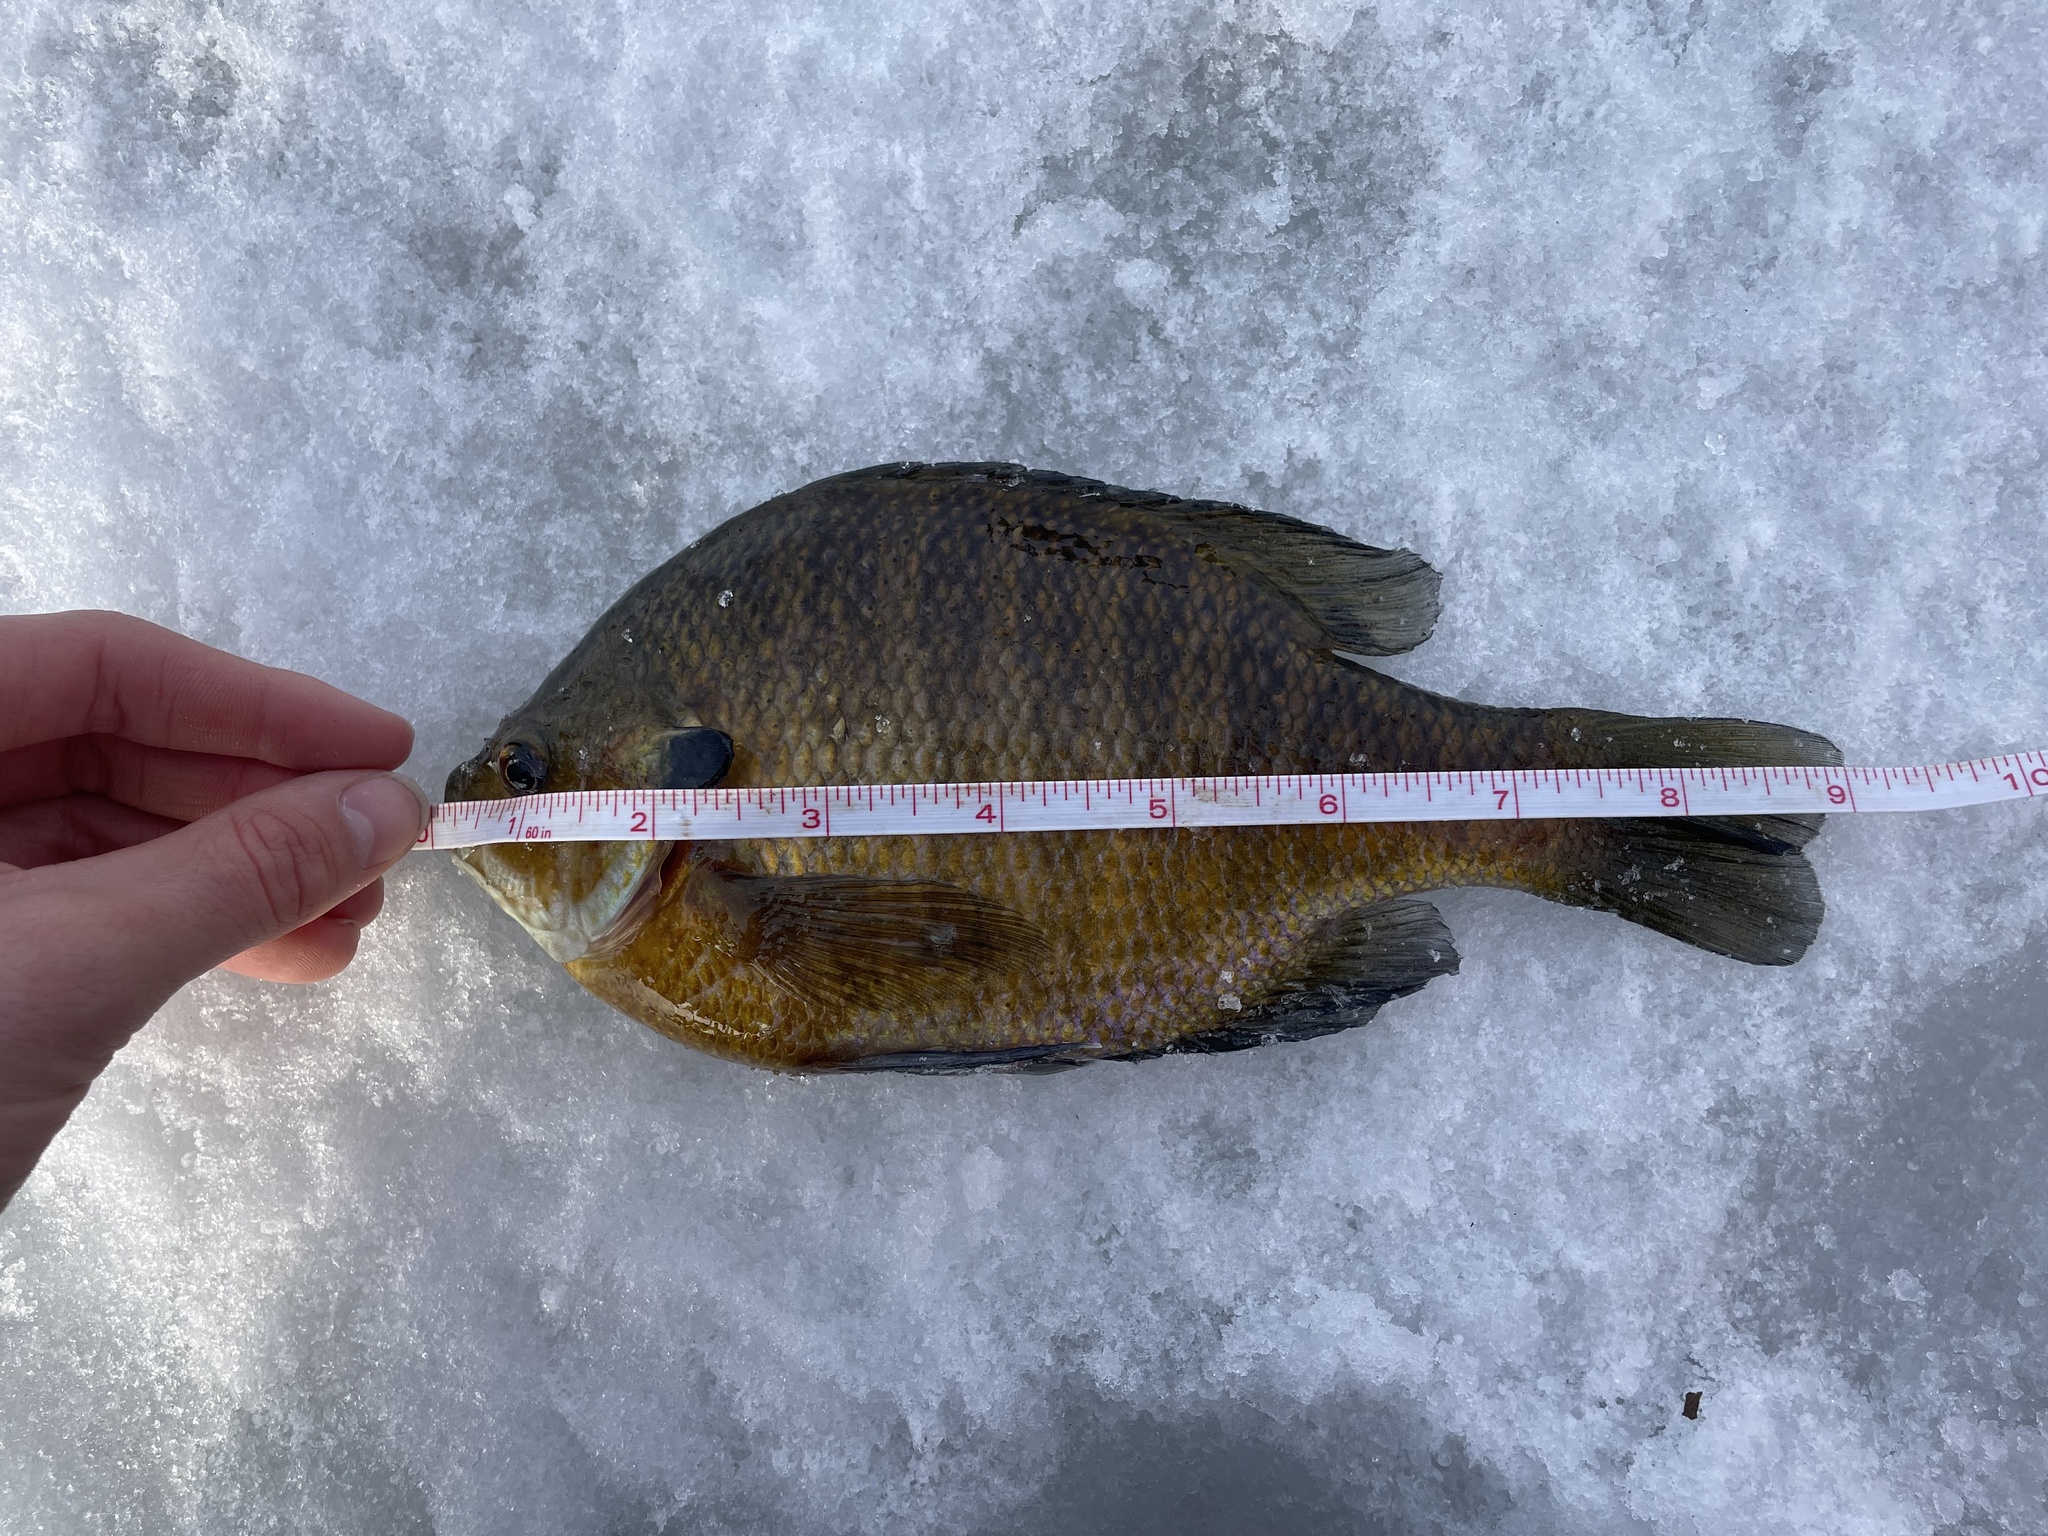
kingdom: Animalia
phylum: Chordata
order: Perciformes
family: Centrarchidae
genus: Lepomis
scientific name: Lepomis macrochirus
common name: Bluegill
